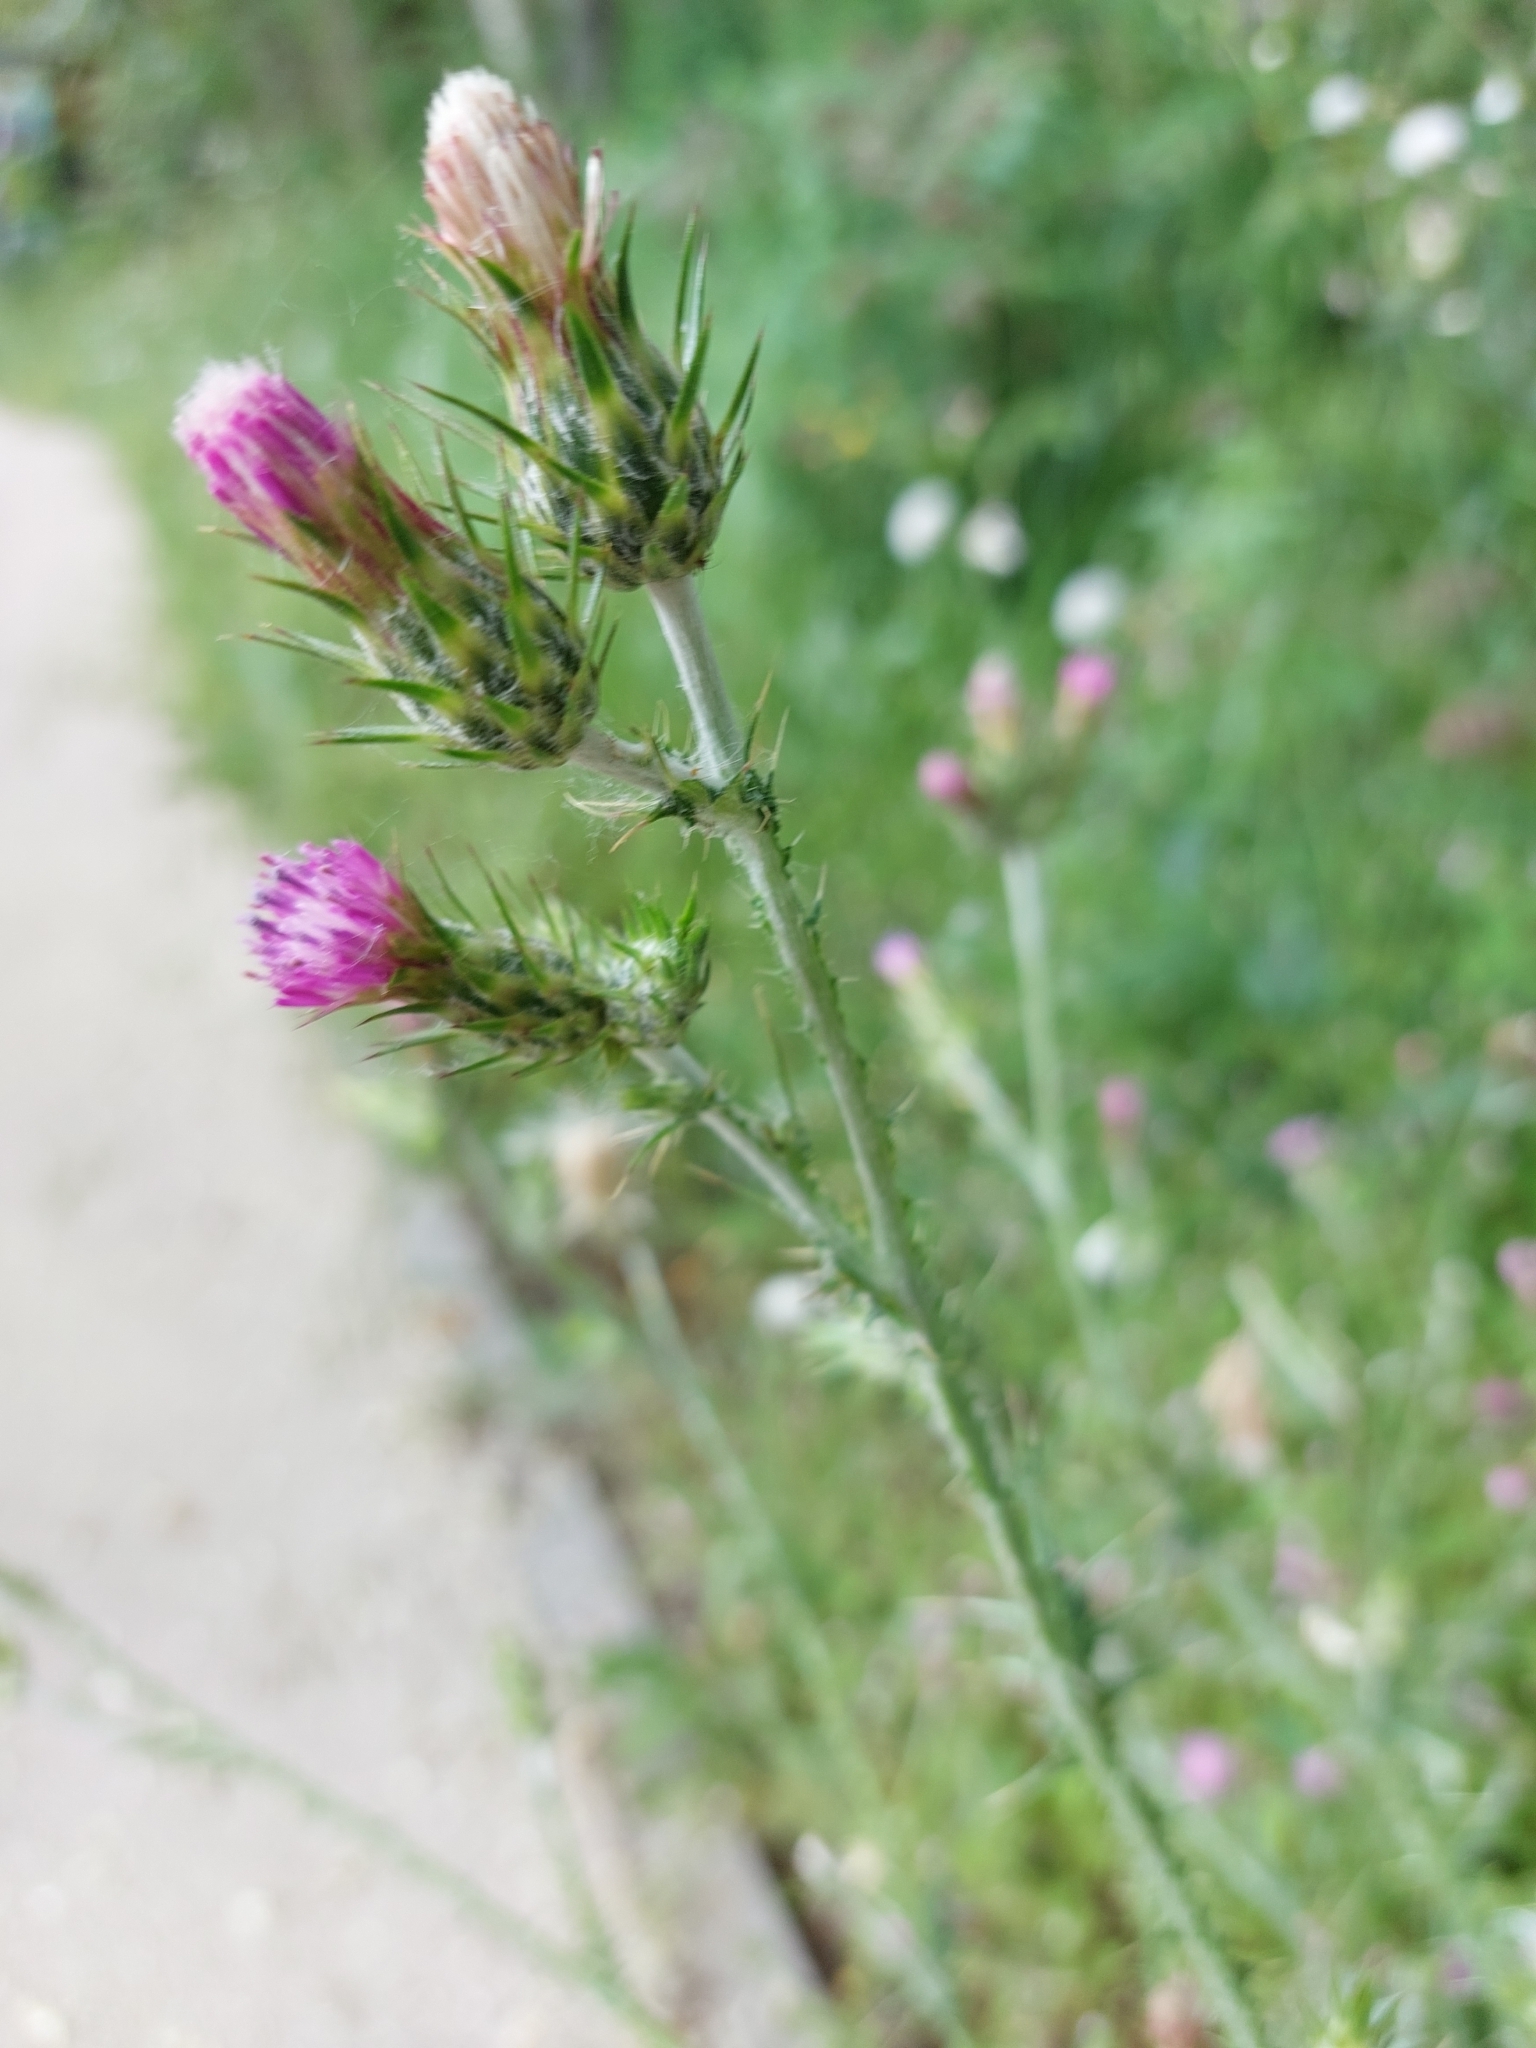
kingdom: Plantae
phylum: Tracheophyta
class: Magnoliopsida
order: Asterales
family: Asteraceae
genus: Carduus
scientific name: Carduus pycnocephalus
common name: Plymouth thistle
